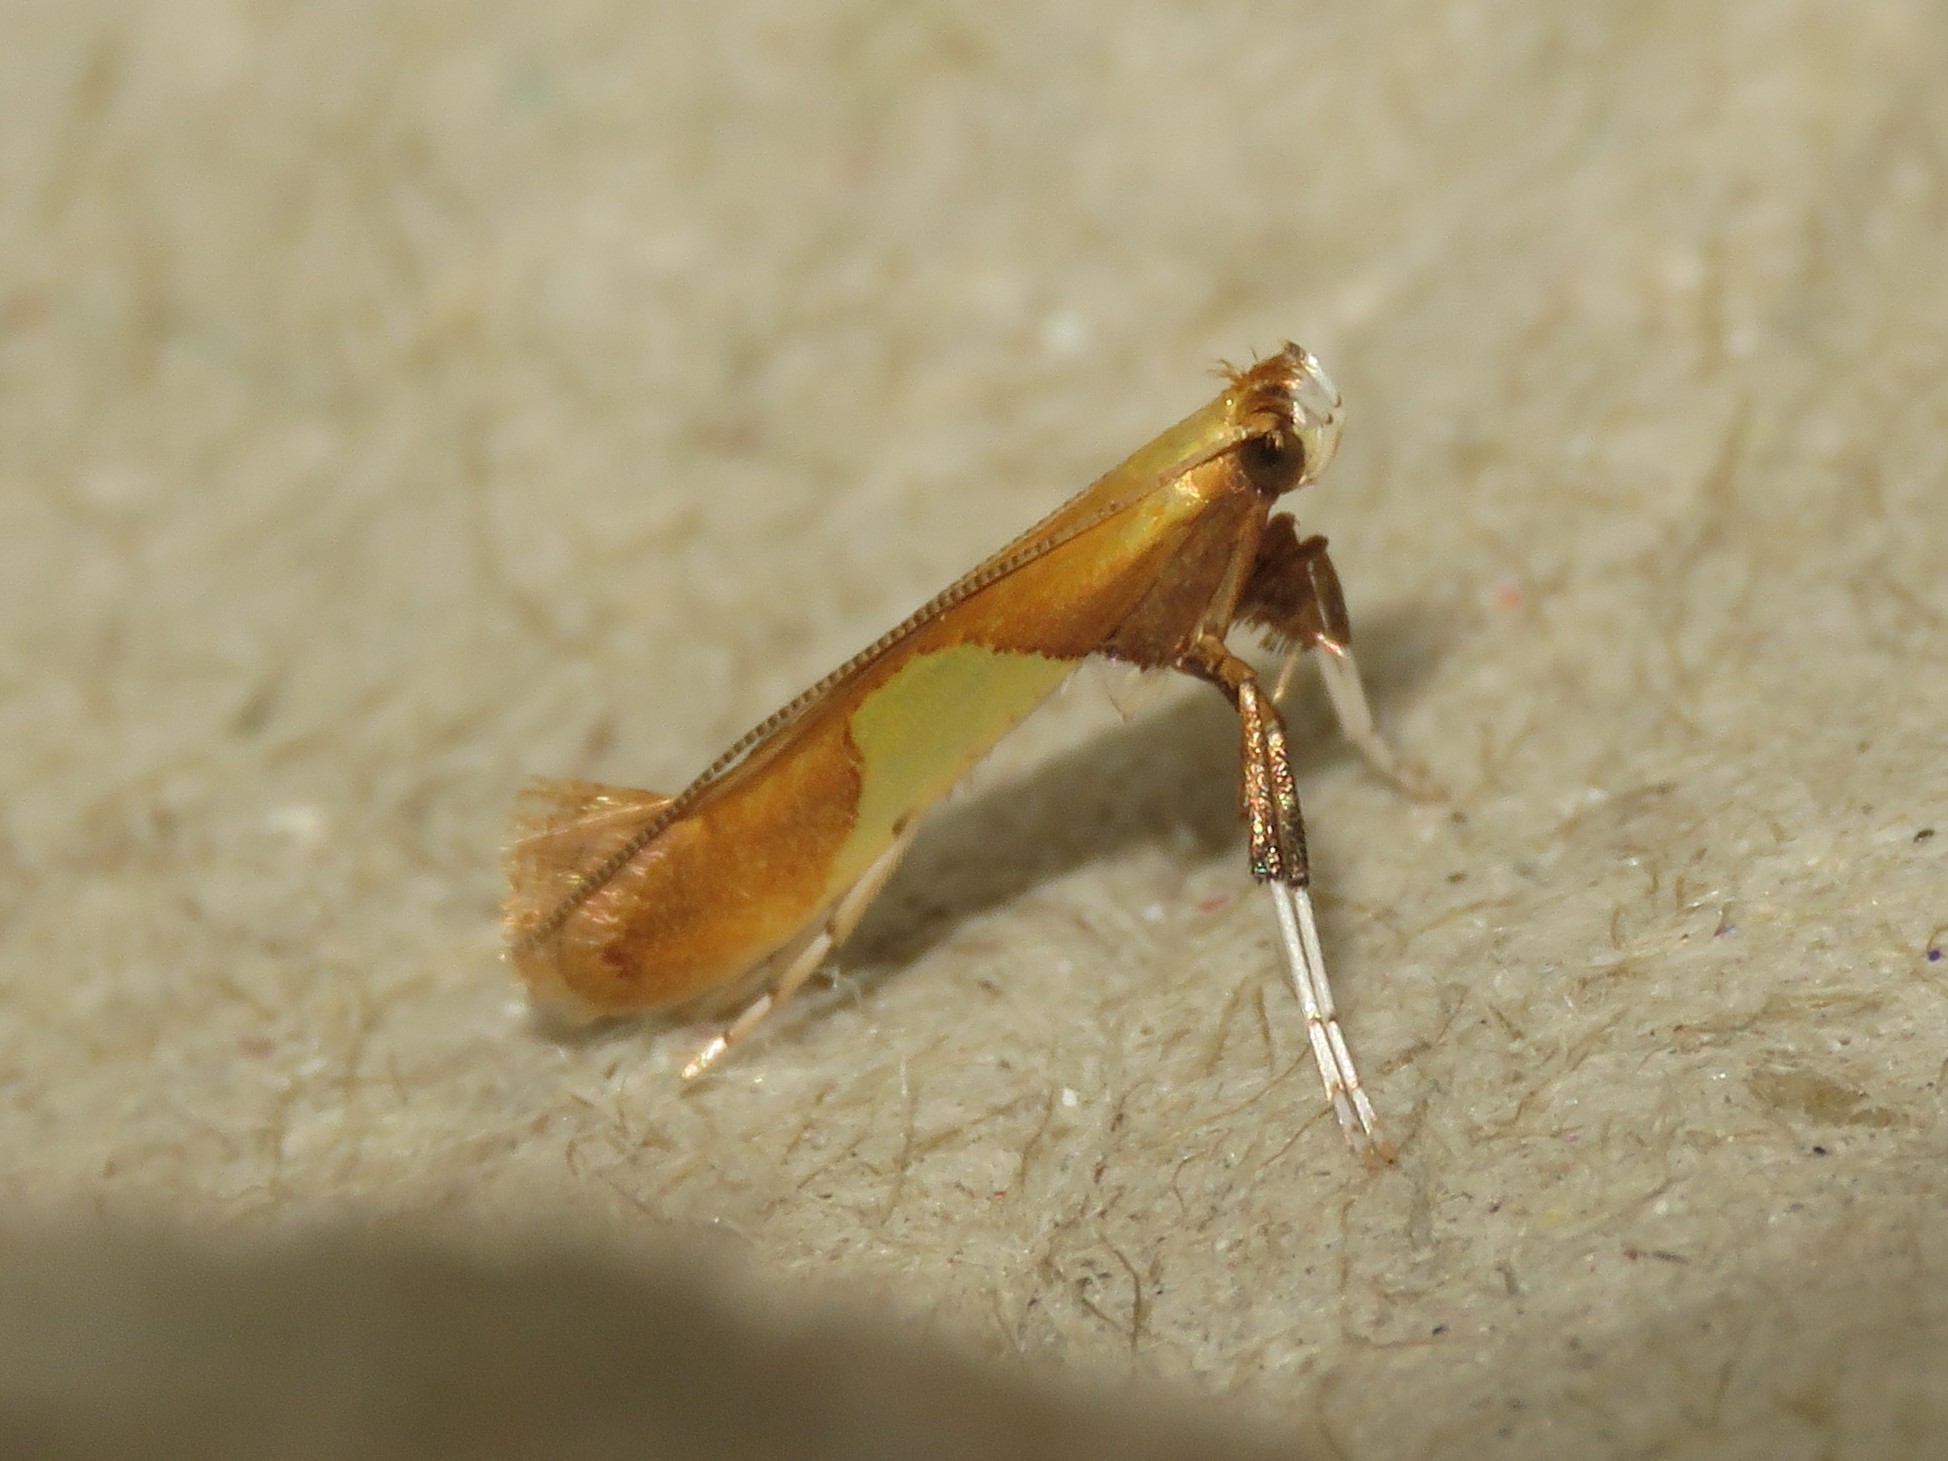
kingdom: Animalia
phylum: Arthropoda
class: Insecta
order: Lepidoptera
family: Gracillariidae
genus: Caloptilia
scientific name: Caloptilia packardella
